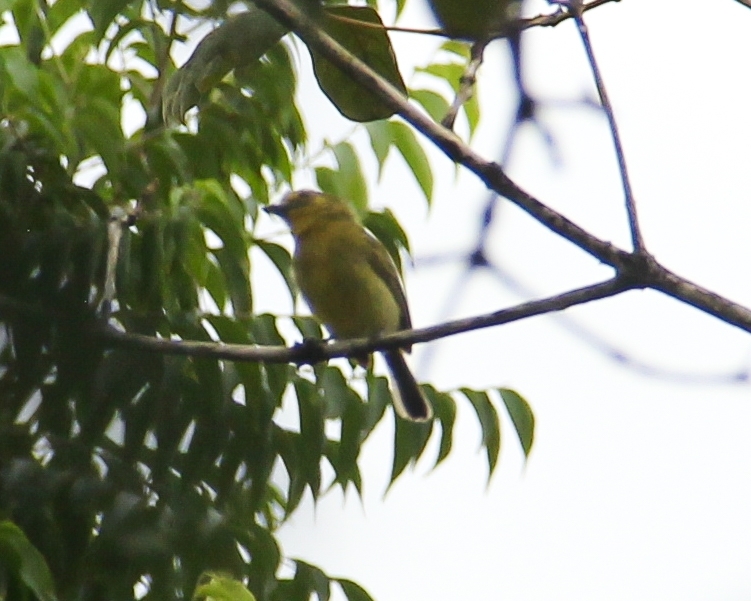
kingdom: Animalia
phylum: Chordata
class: Aves
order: Passeriformes
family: Tyrannidae
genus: Tolmomyias
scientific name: Tolmomyias flaviventris
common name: Ochre-lored flatbill
